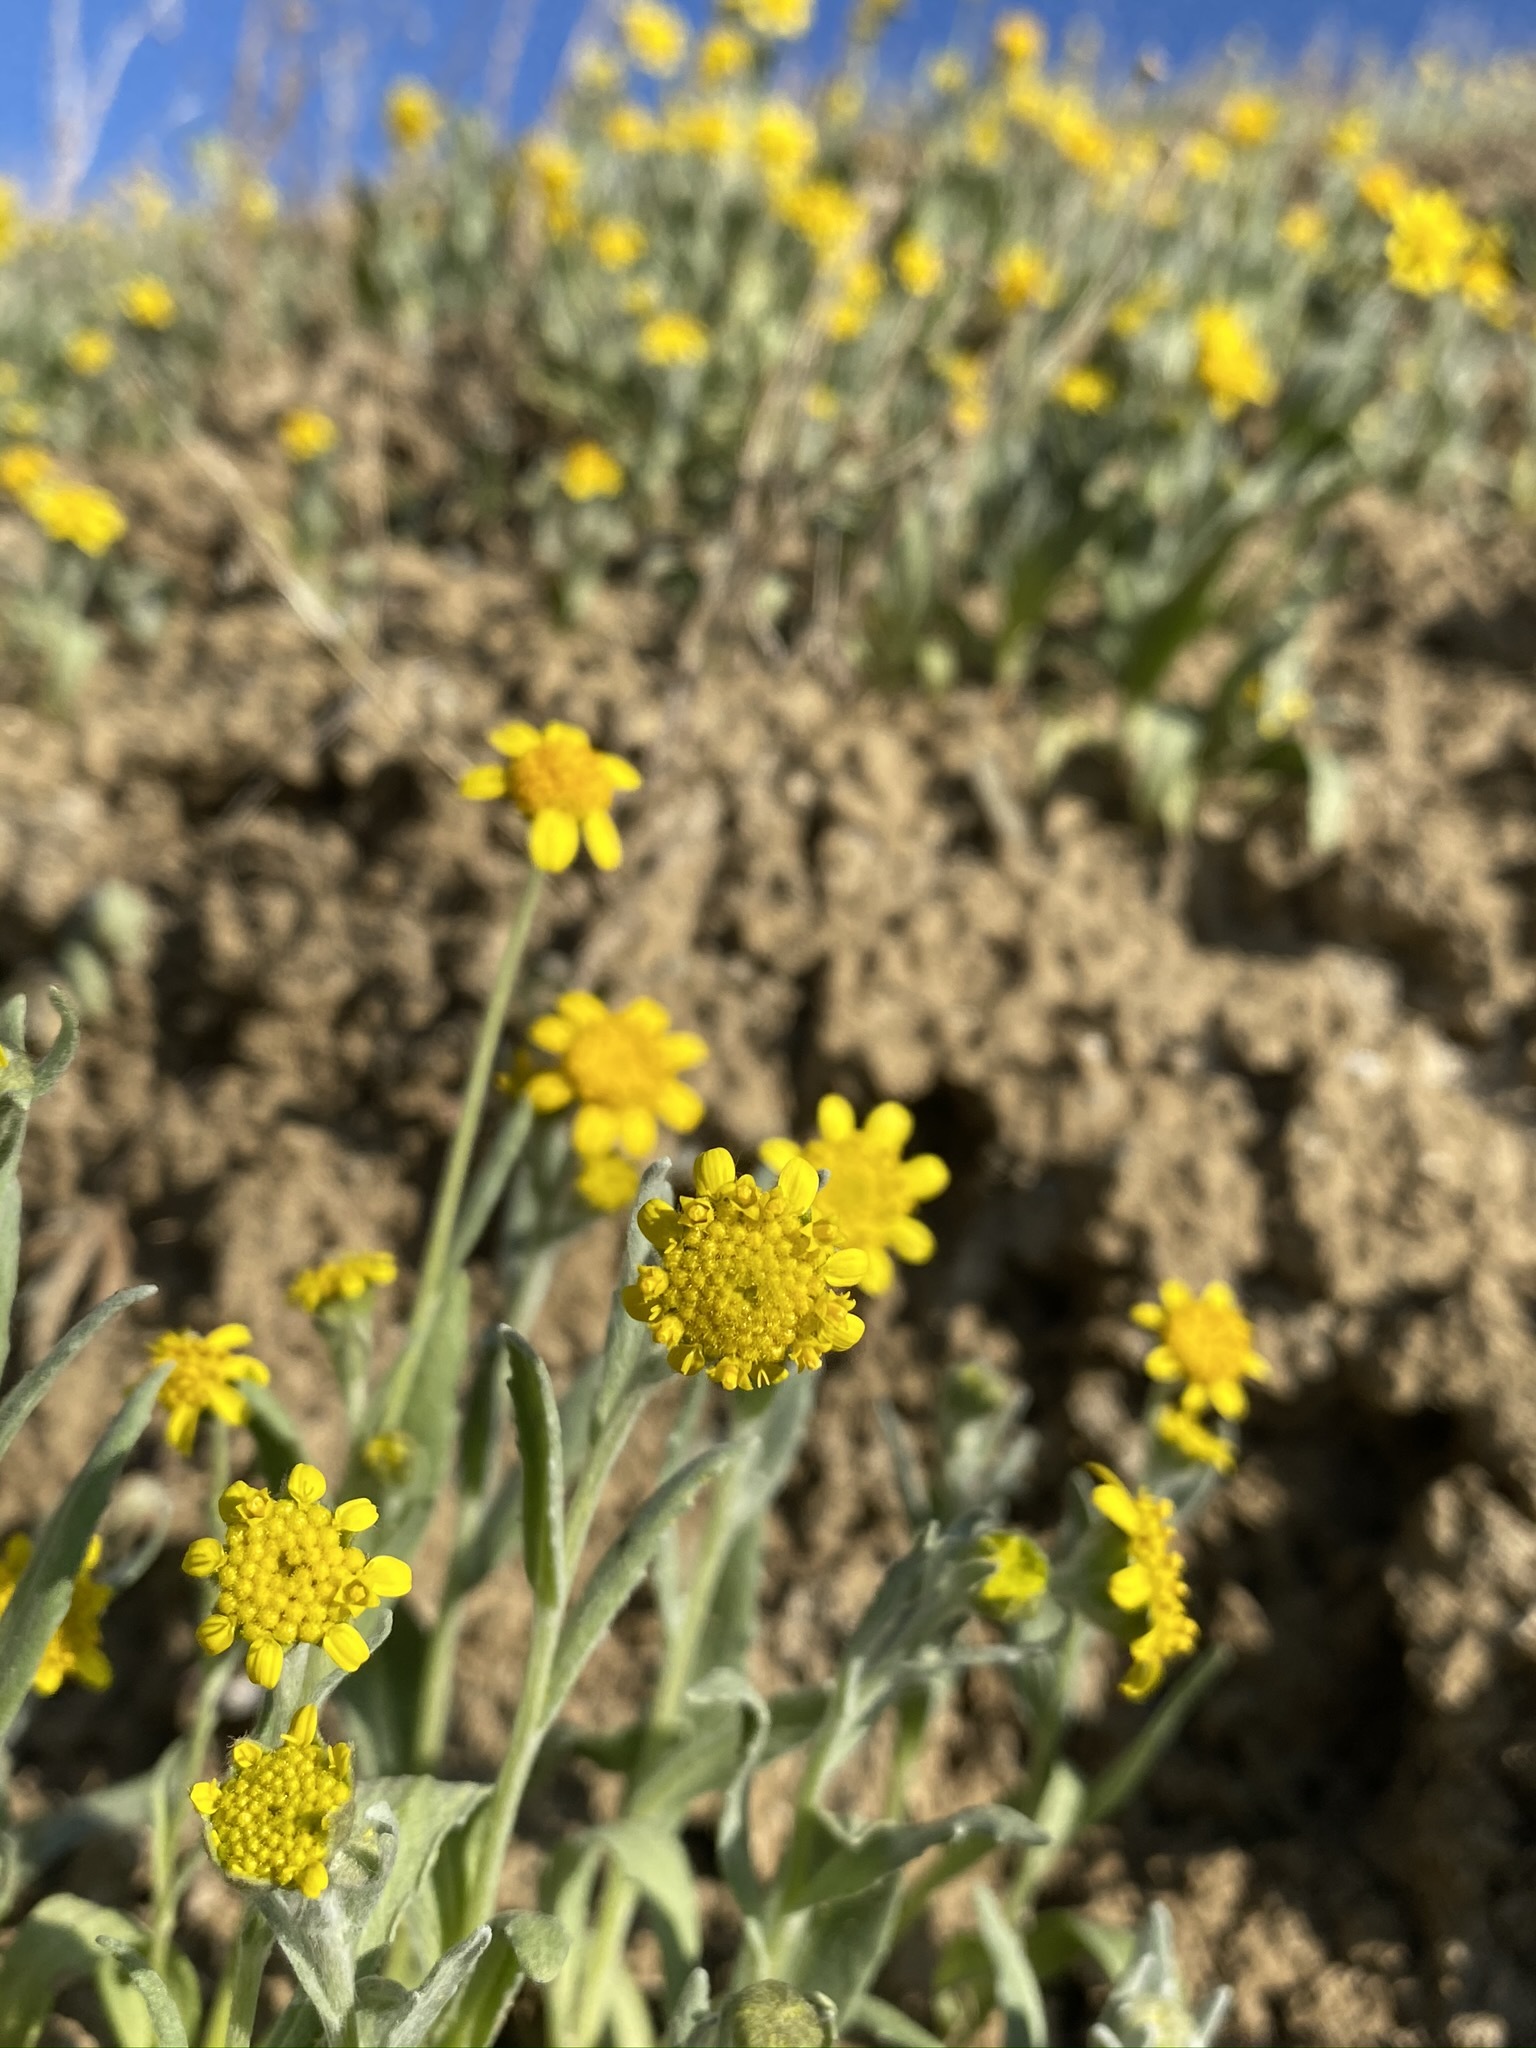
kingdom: Plantae
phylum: Tracheophyta
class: Magnoliopsida
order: Asterales
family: Asteraceae
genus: Monolopia
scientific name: Monolopia stricta
